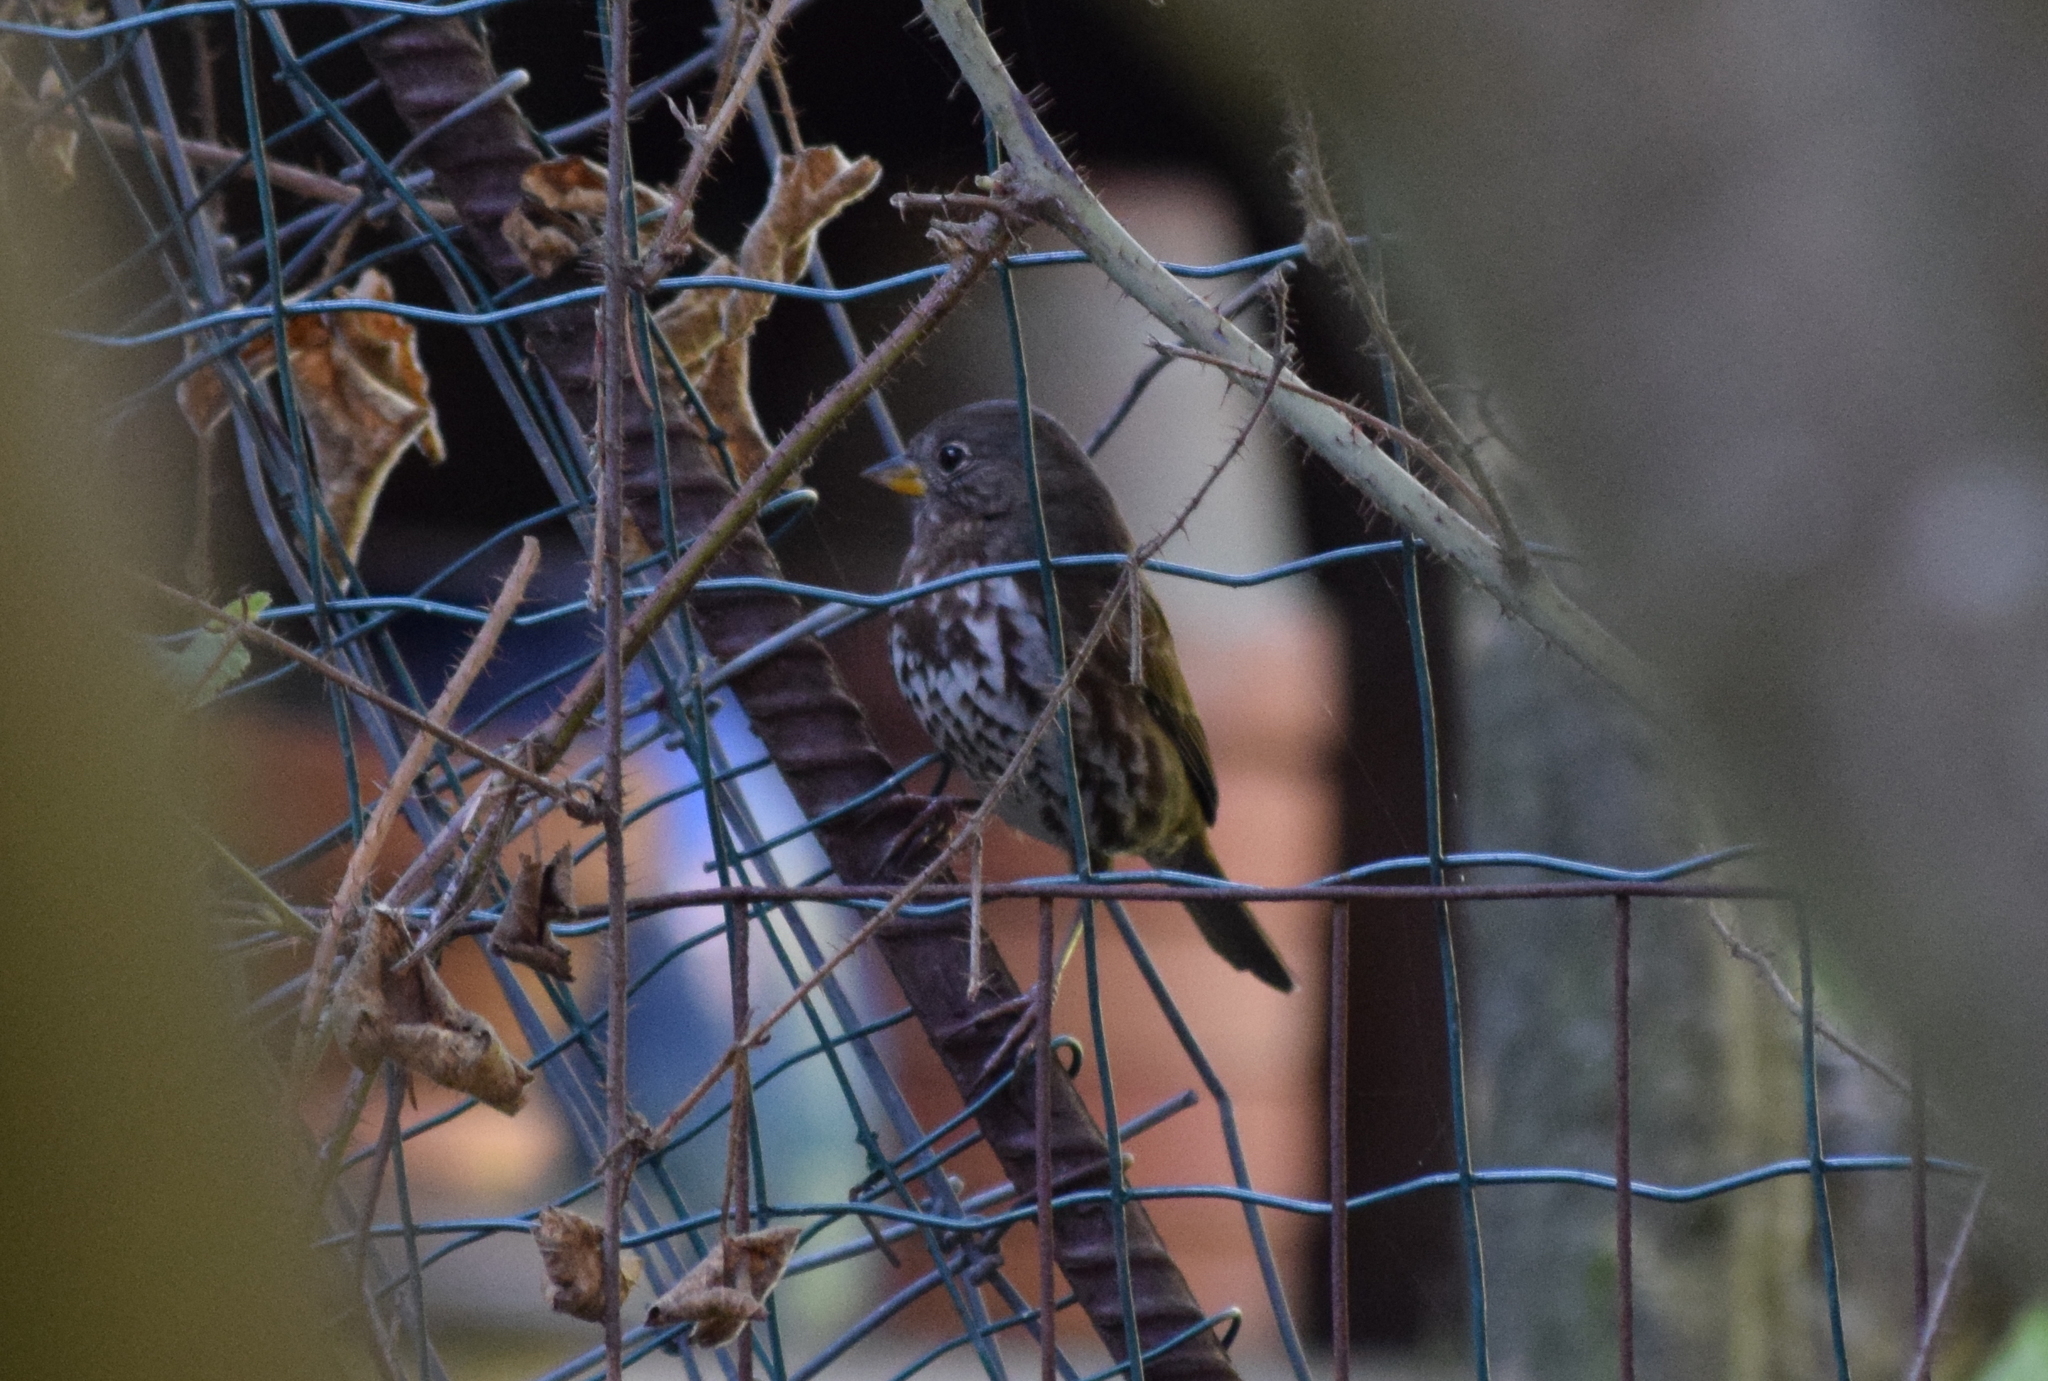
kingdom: Animalia
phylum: Chordata
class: Aves
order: Passeriformes
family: Passerellidae
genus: Passerella
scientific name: Passerella iliaca
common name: Fox sparrow
